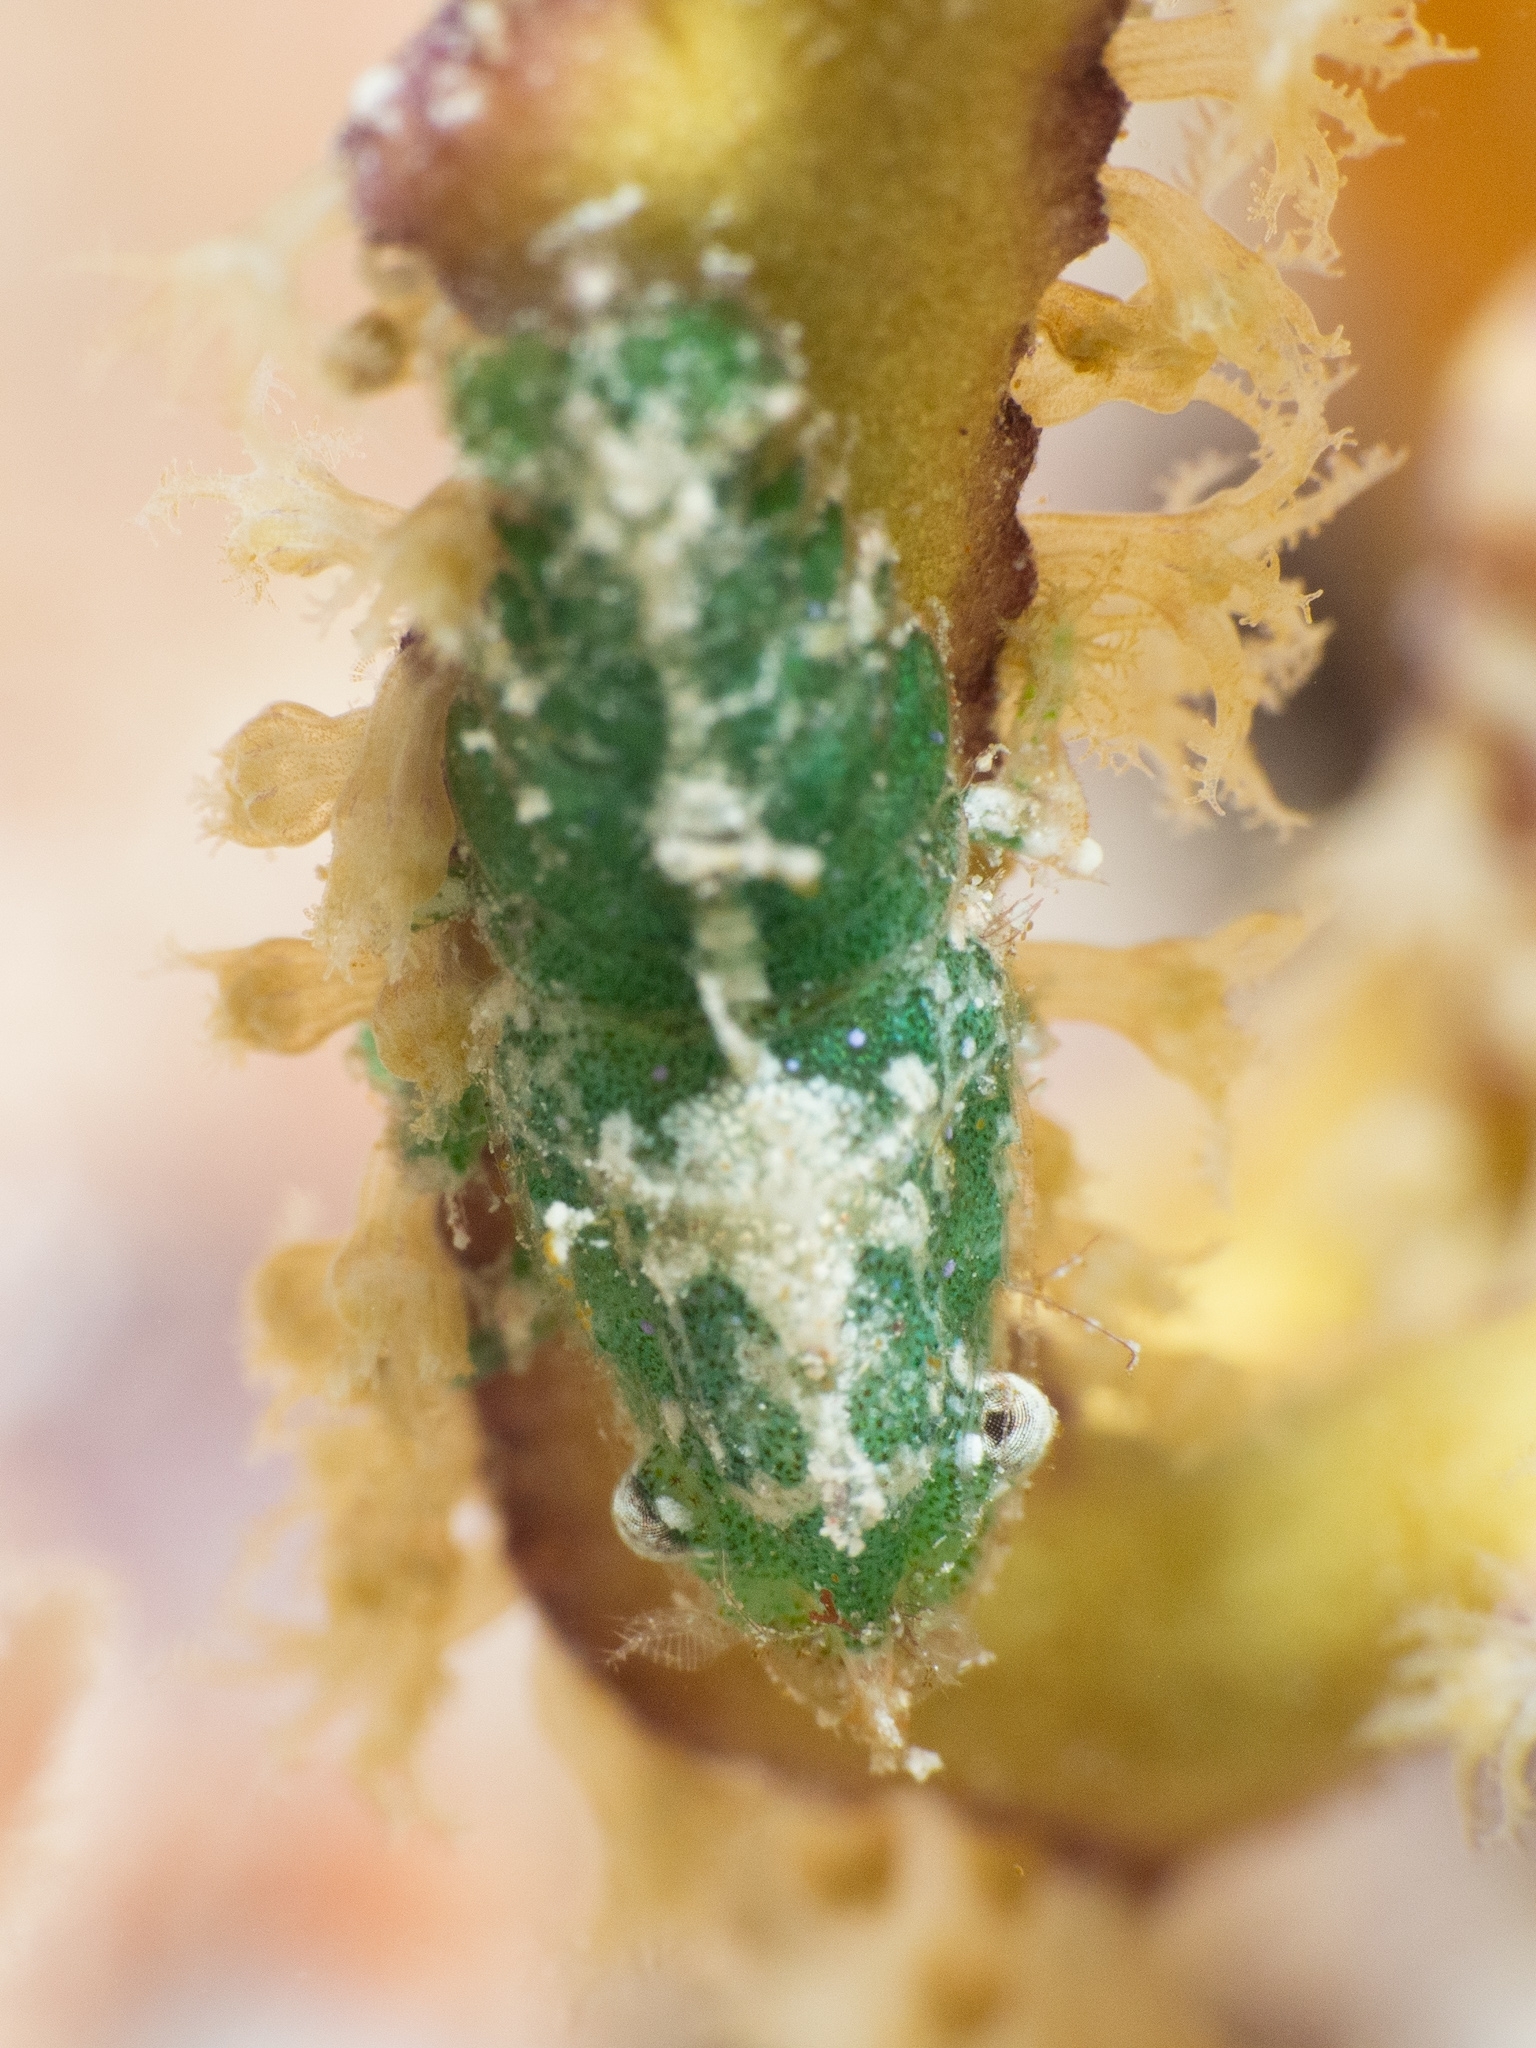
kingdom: Animalia
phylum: Arthropoda
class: Malacostraca
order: Decapoda
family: Hippolytidae
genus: Trachycaris
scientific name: Trachycaris rugosa
